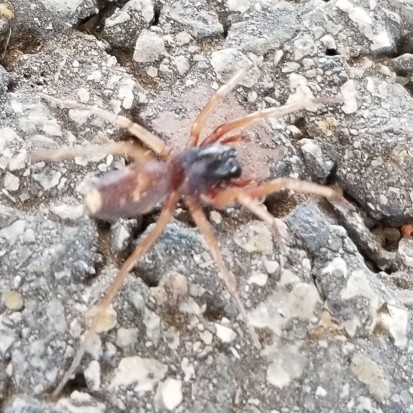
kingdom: Animalia
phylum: Arthropoda
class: Arachnida
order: Araneae
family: Corinnidae
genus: Falconina
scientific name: Falconina gracilis
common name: Antmimic spider
